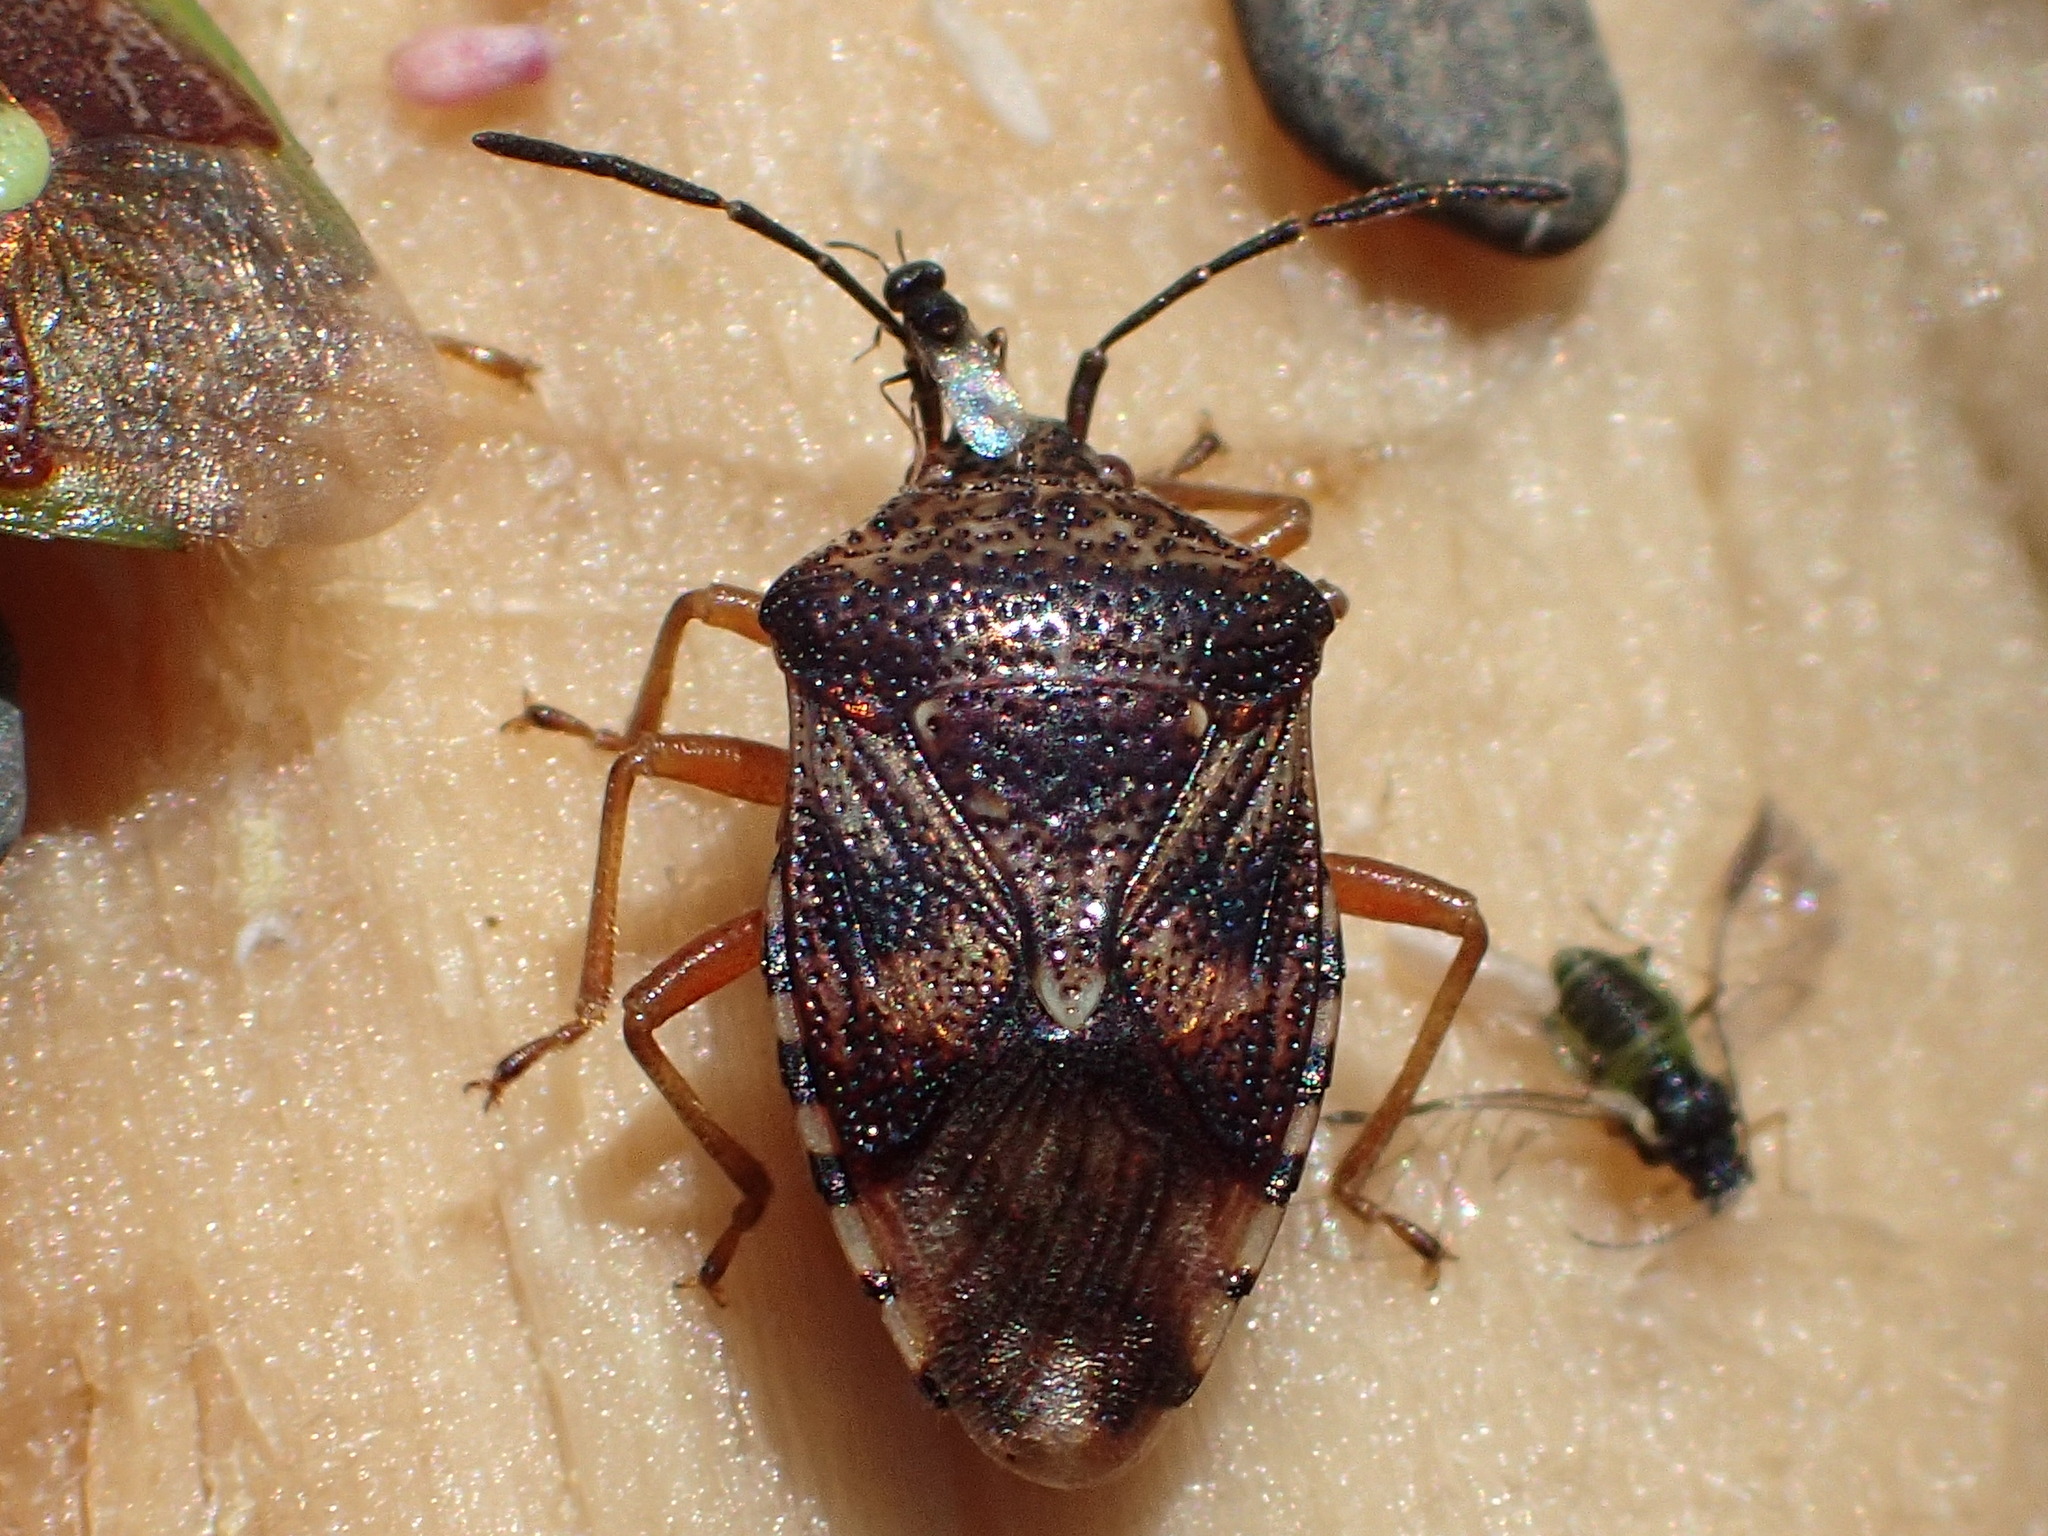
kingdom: Animalia
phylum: Arthropoda
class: Insecta
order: Hemiptera
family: Acanthosomatidae
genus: Elasmucha
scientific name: Elasmucha lateralis
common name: Shield bug
